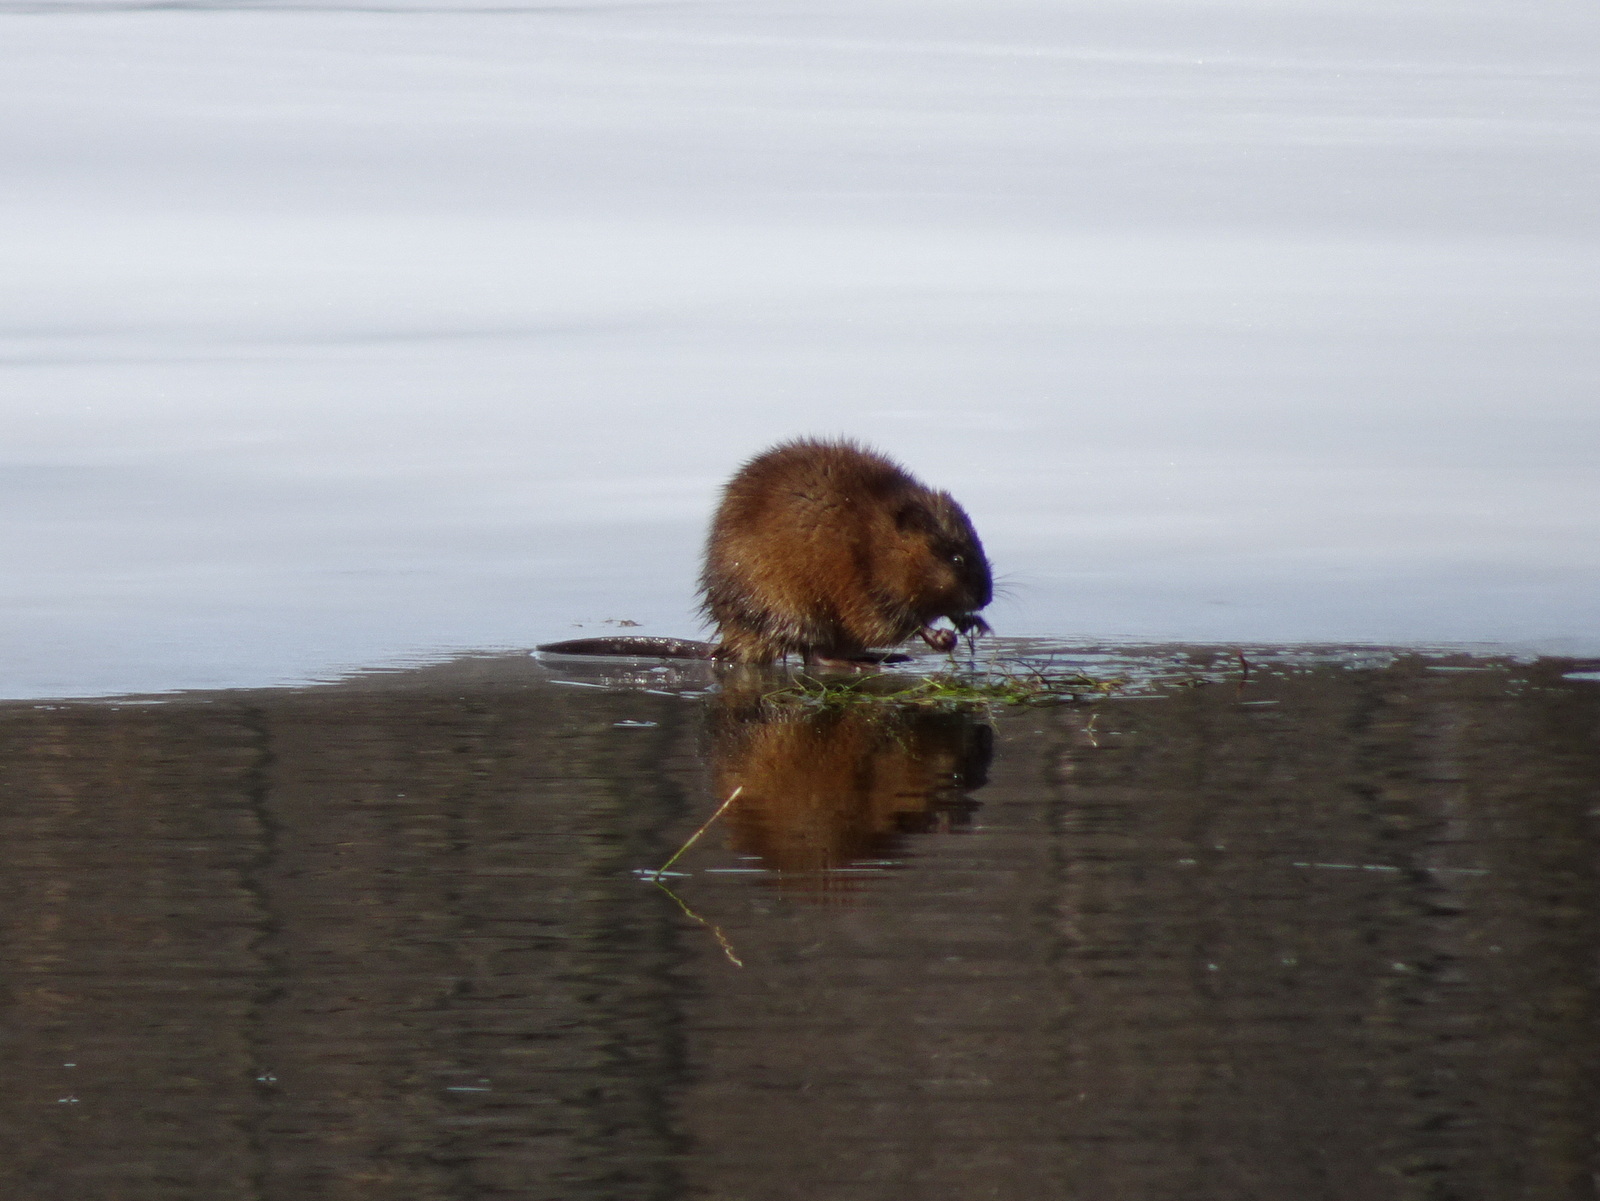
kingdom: Animalia
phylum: Chordata
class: Mammalia
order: Rodentia
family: Cricetidae
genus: Ondatra
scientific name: Ondatra zibethicus
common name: Muskrat
